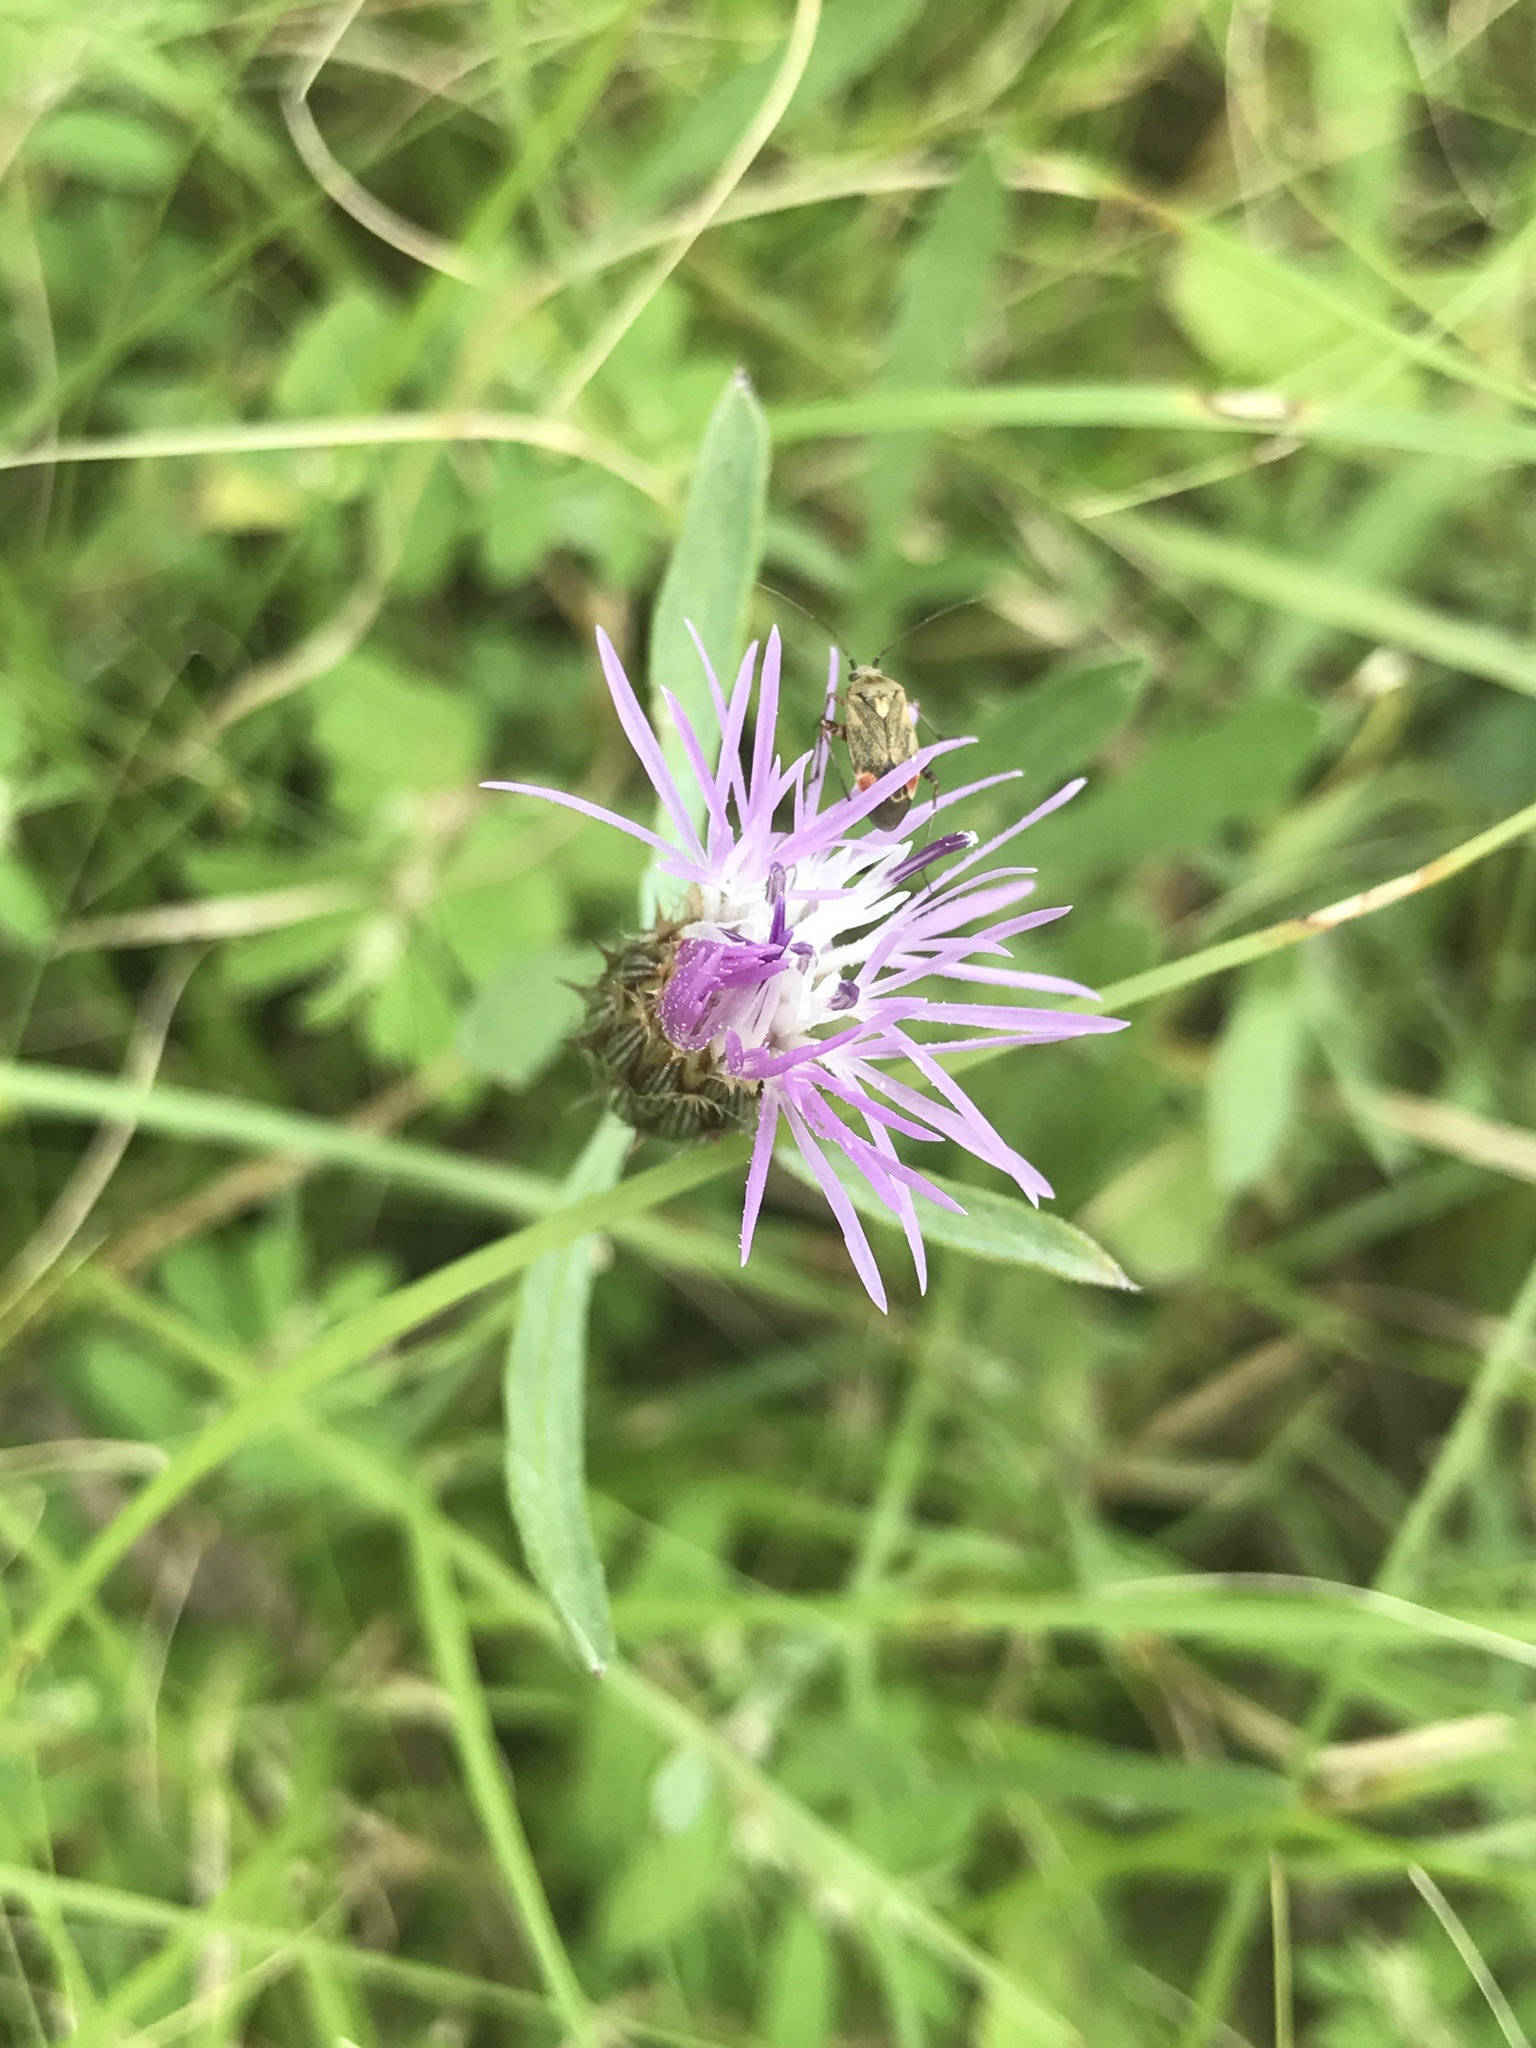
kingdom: Plantae
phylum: Tracheophyta
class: Magnoliopsida
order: Asterales
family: Asteraceae
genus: Centaurea
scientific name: Centaurea stoebe
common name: Spotted knapweed
